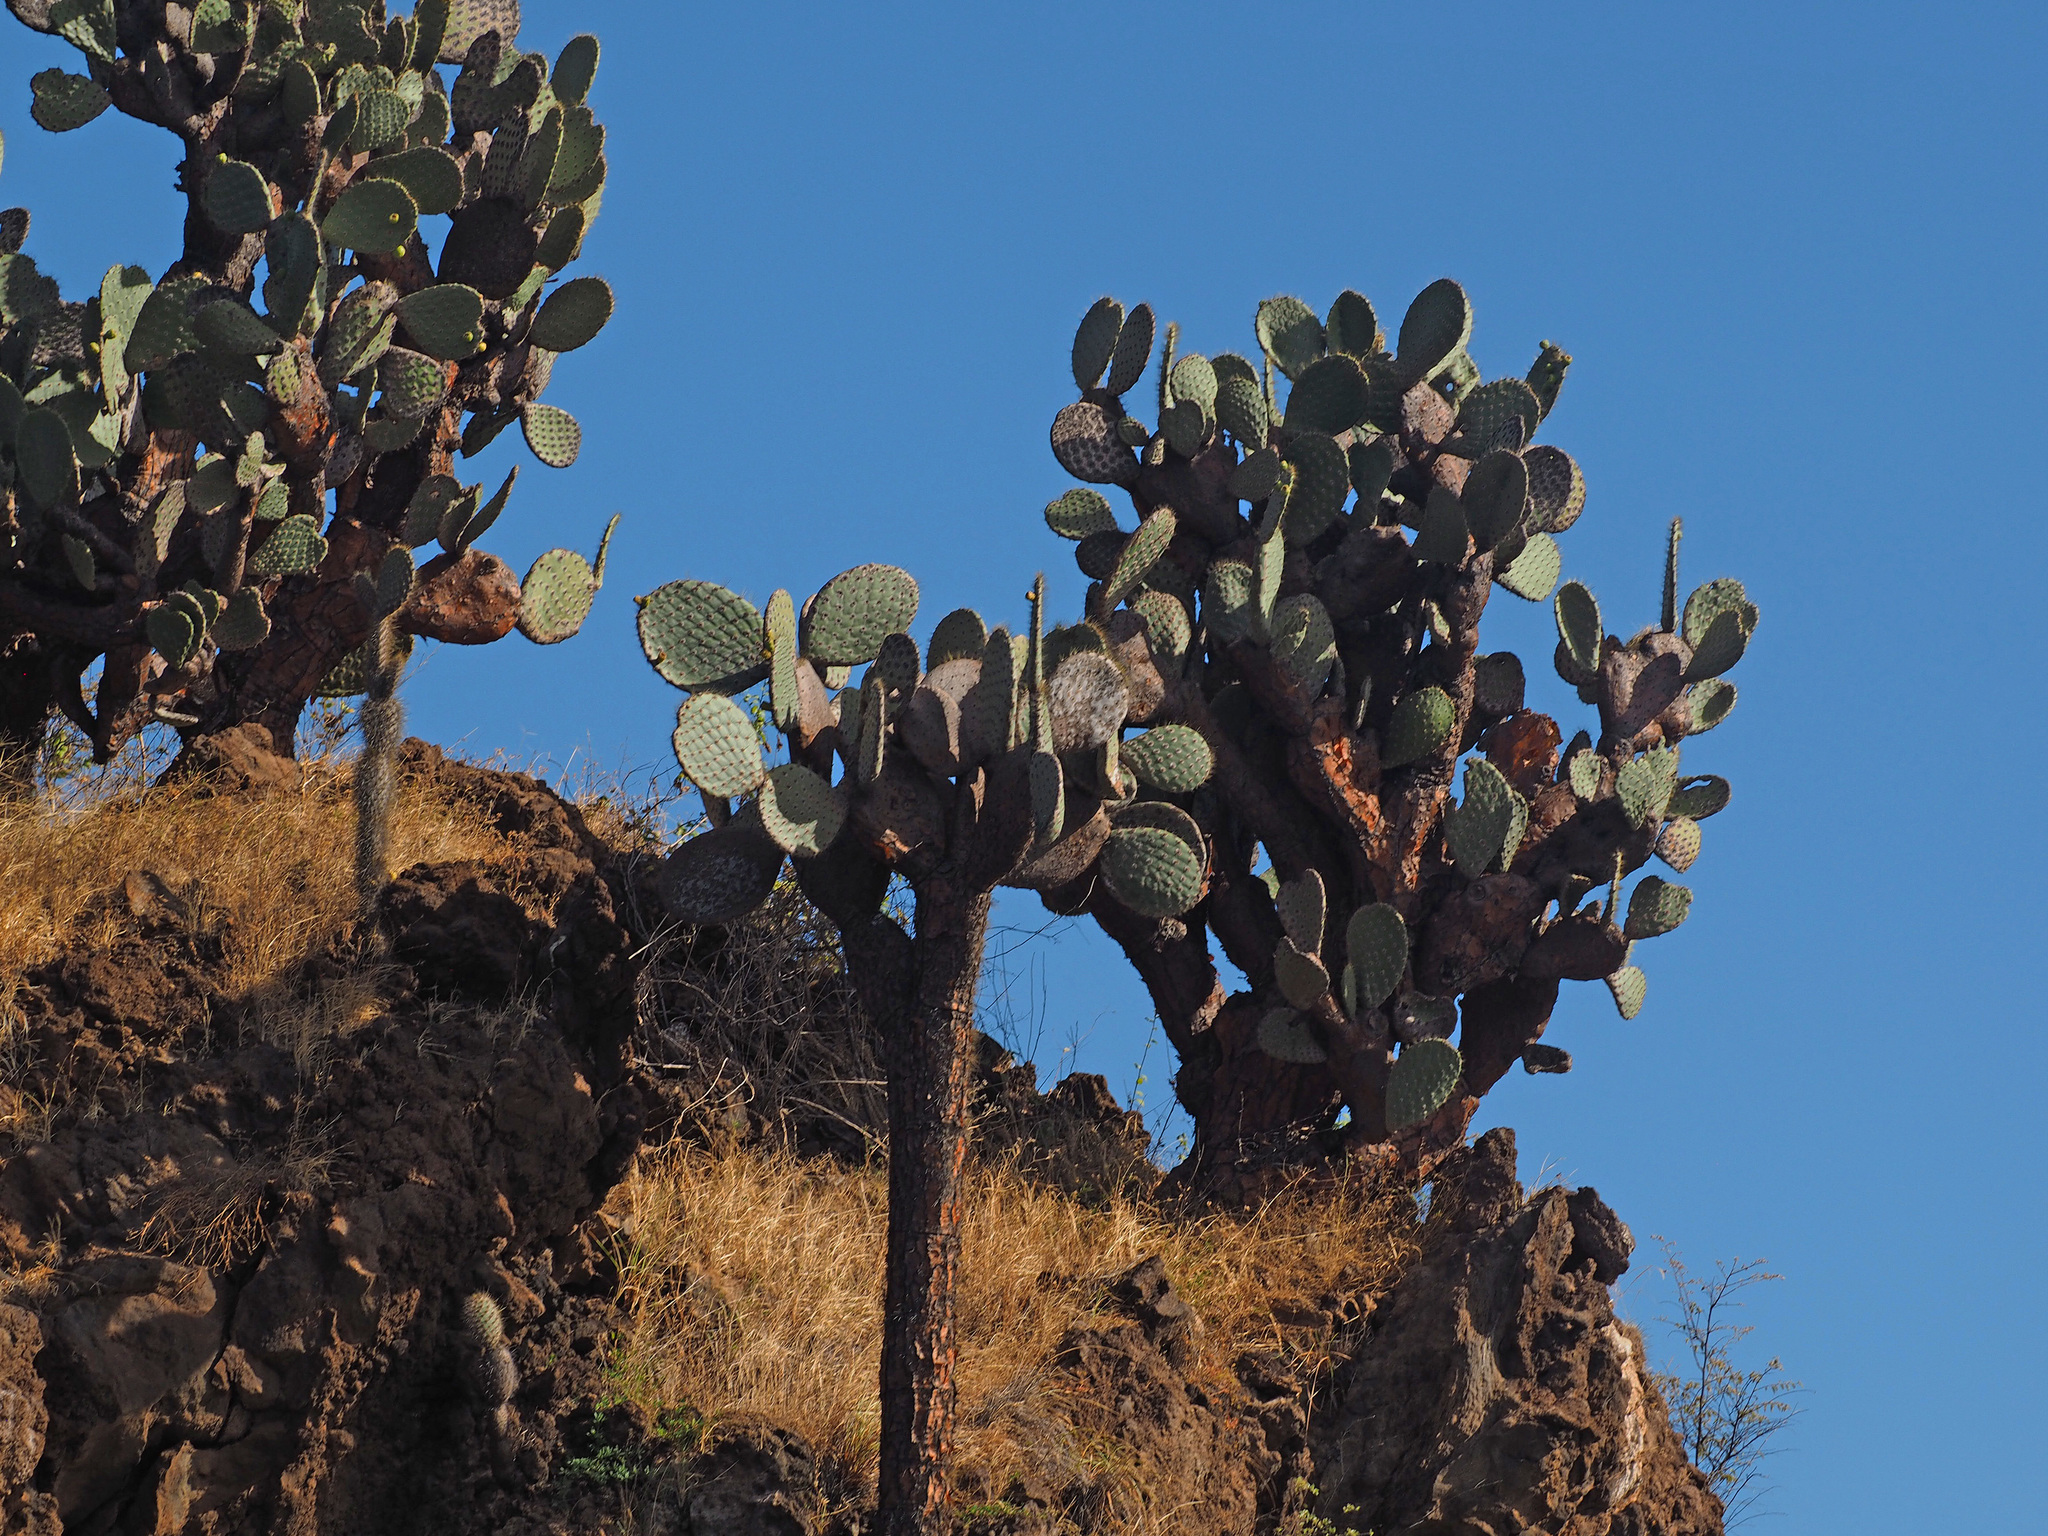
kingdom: Plantae
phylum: Tracheophyta
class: Magnoliopsida
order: Caryophyllales
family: Cactaceae
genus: Opuntia
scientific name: Opuntia galapageia
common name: Galápagos prickly pear
